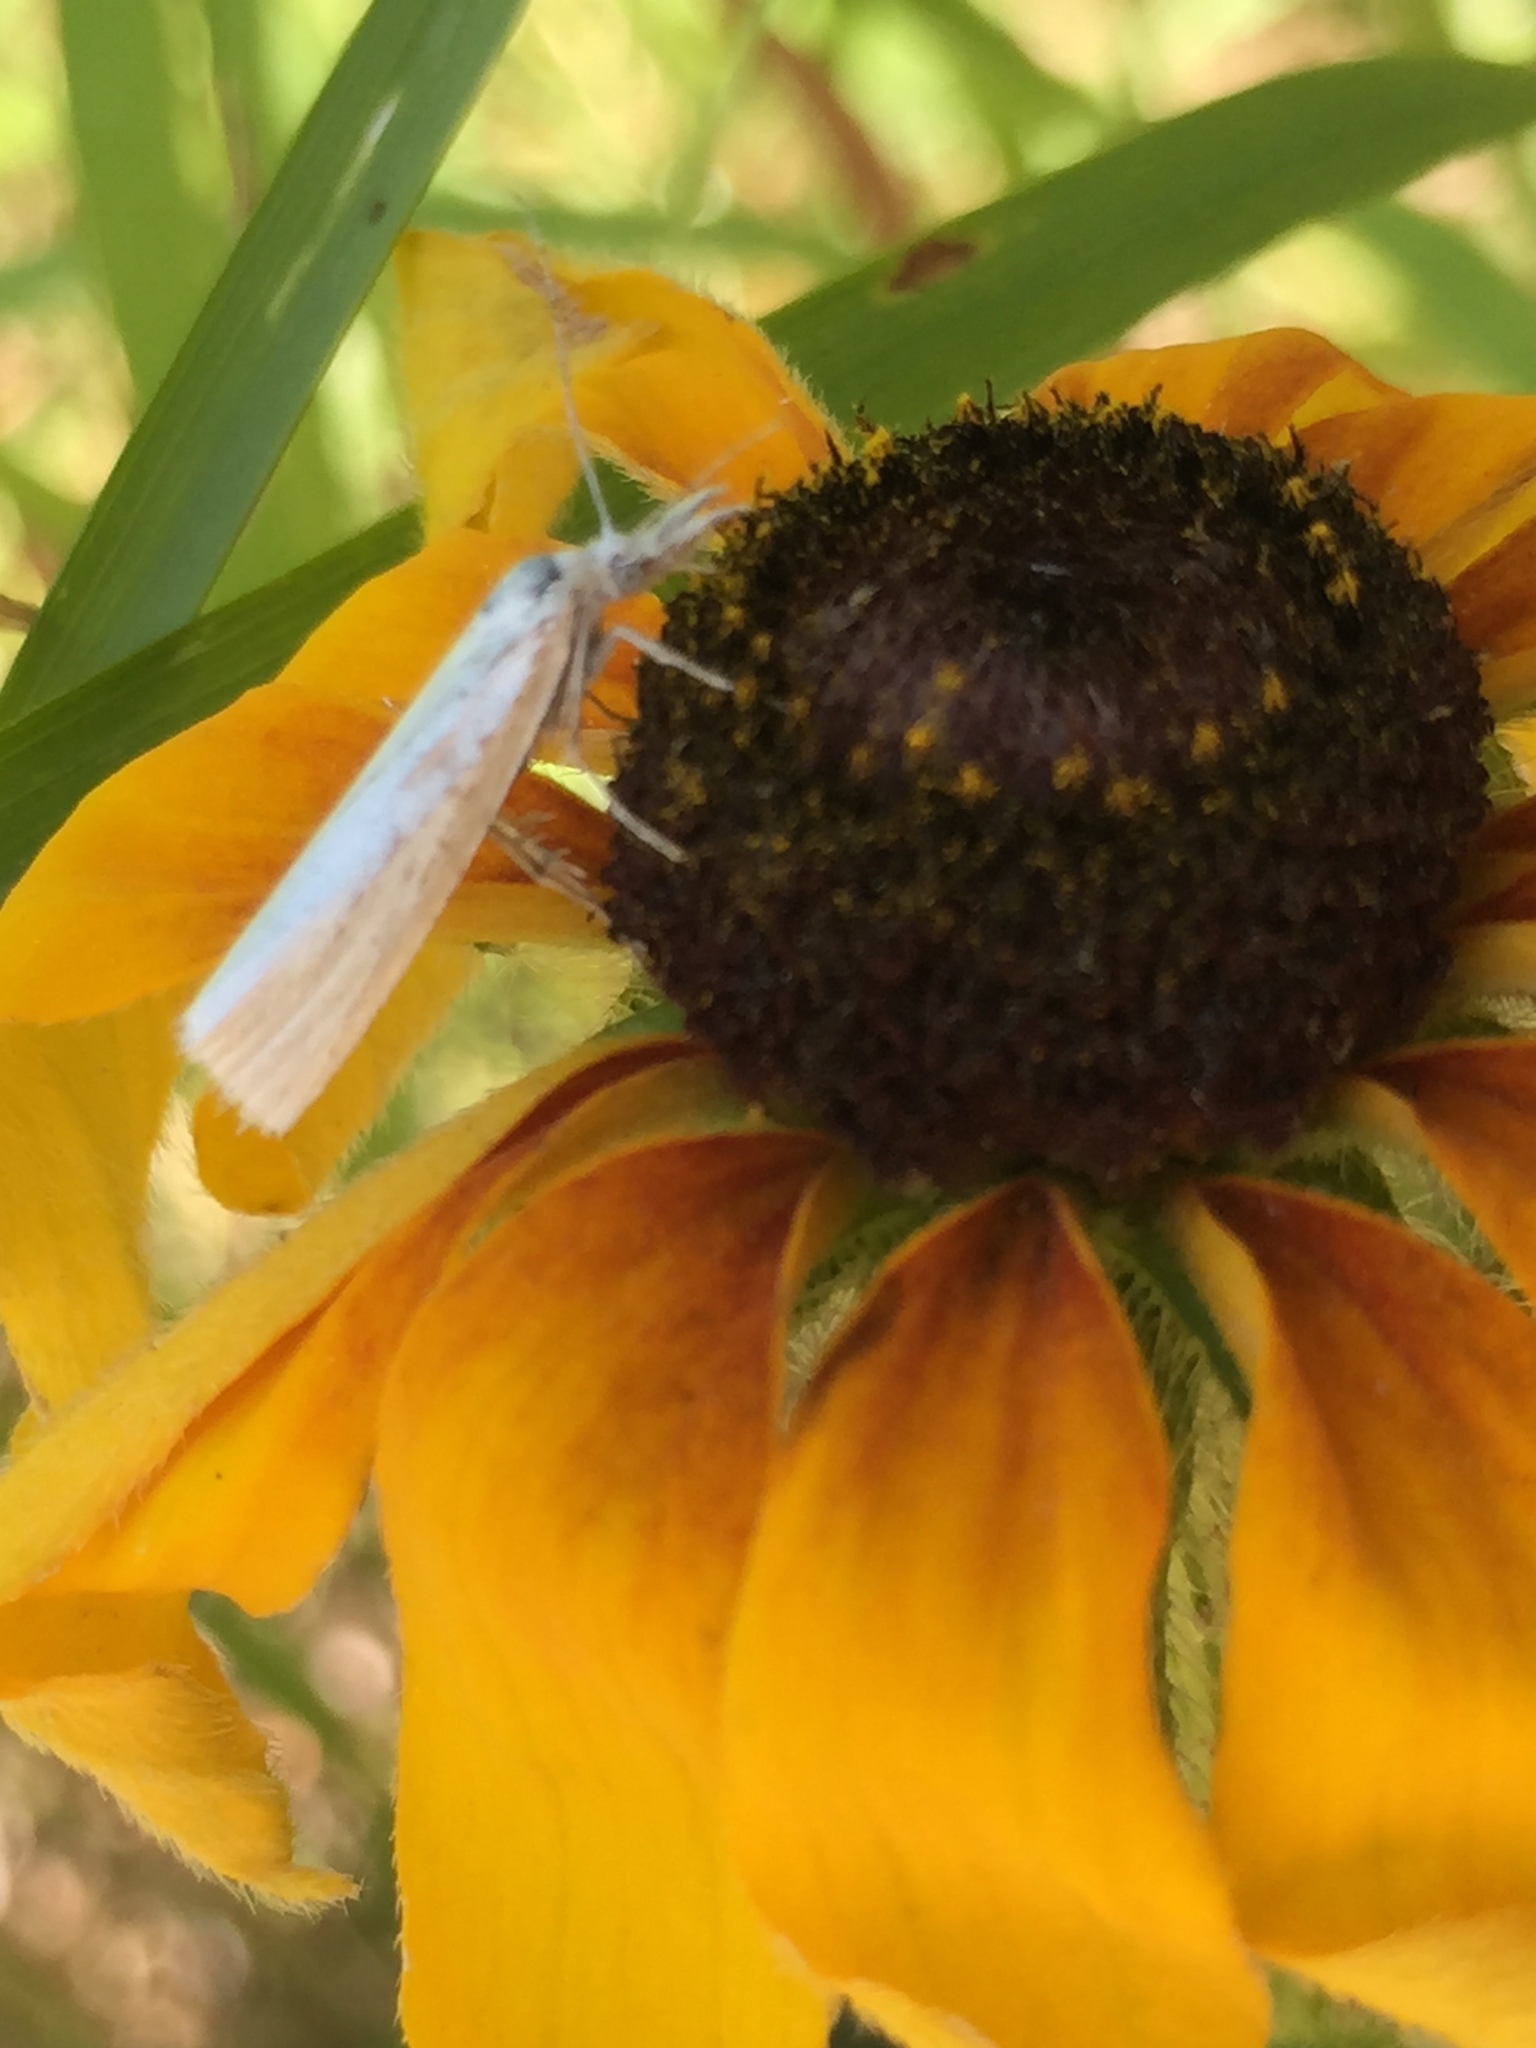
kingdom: Plantae
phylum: Tracheophyta
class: Magnoliopsida
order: Asterales
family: Asteraceae
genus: Rudbeckia
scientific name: Rudbeckia hirta
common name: Black-eyed-susan
